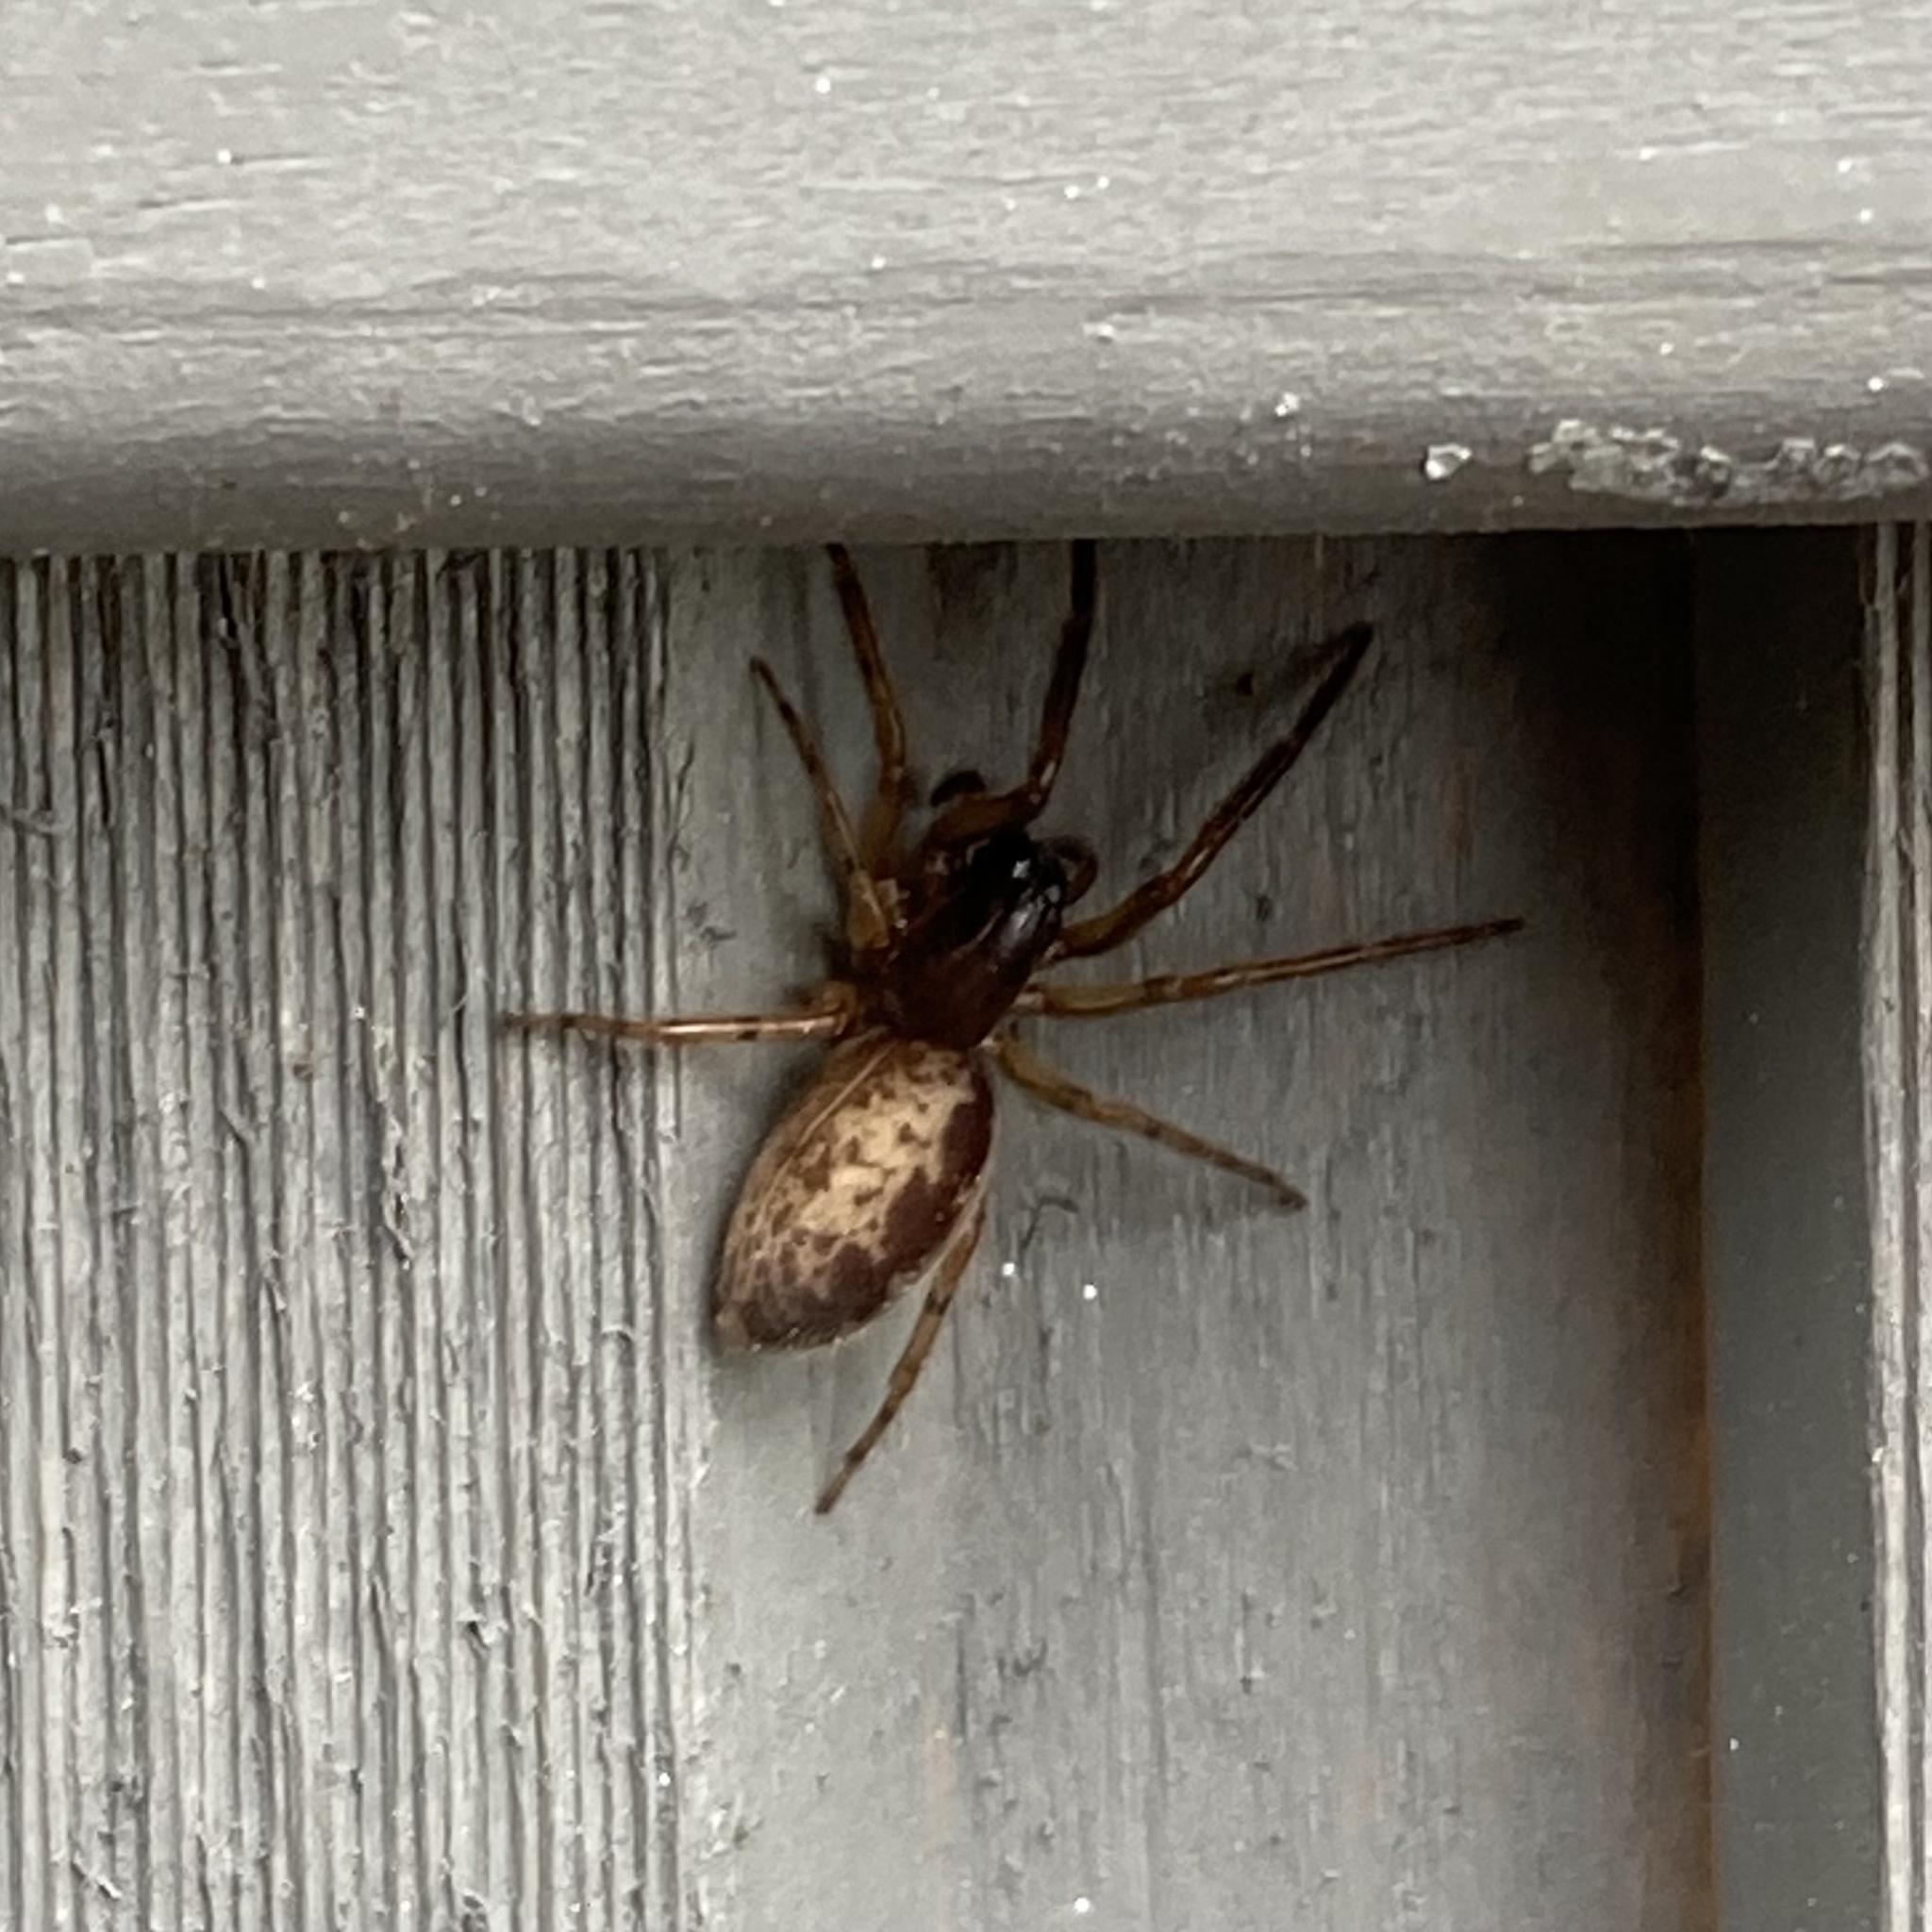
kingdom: Animalia
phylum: Arthropoda
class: Arachnida
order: Araneae
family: Segestriidae
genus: Segestria
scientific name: Segestria senoculata
